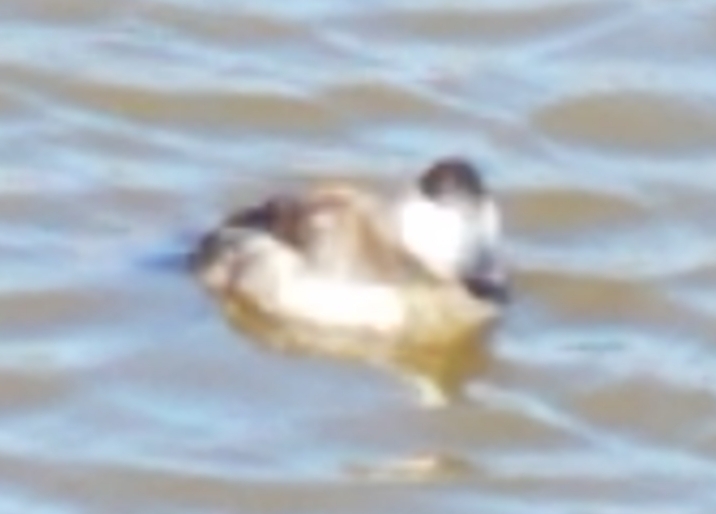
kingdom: Animalia
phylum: Chordata
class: Aves
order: Anseriformes
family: Anatidae
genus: Oxyura
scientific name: Oxyura jamaicensis
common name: Ruddy duck
